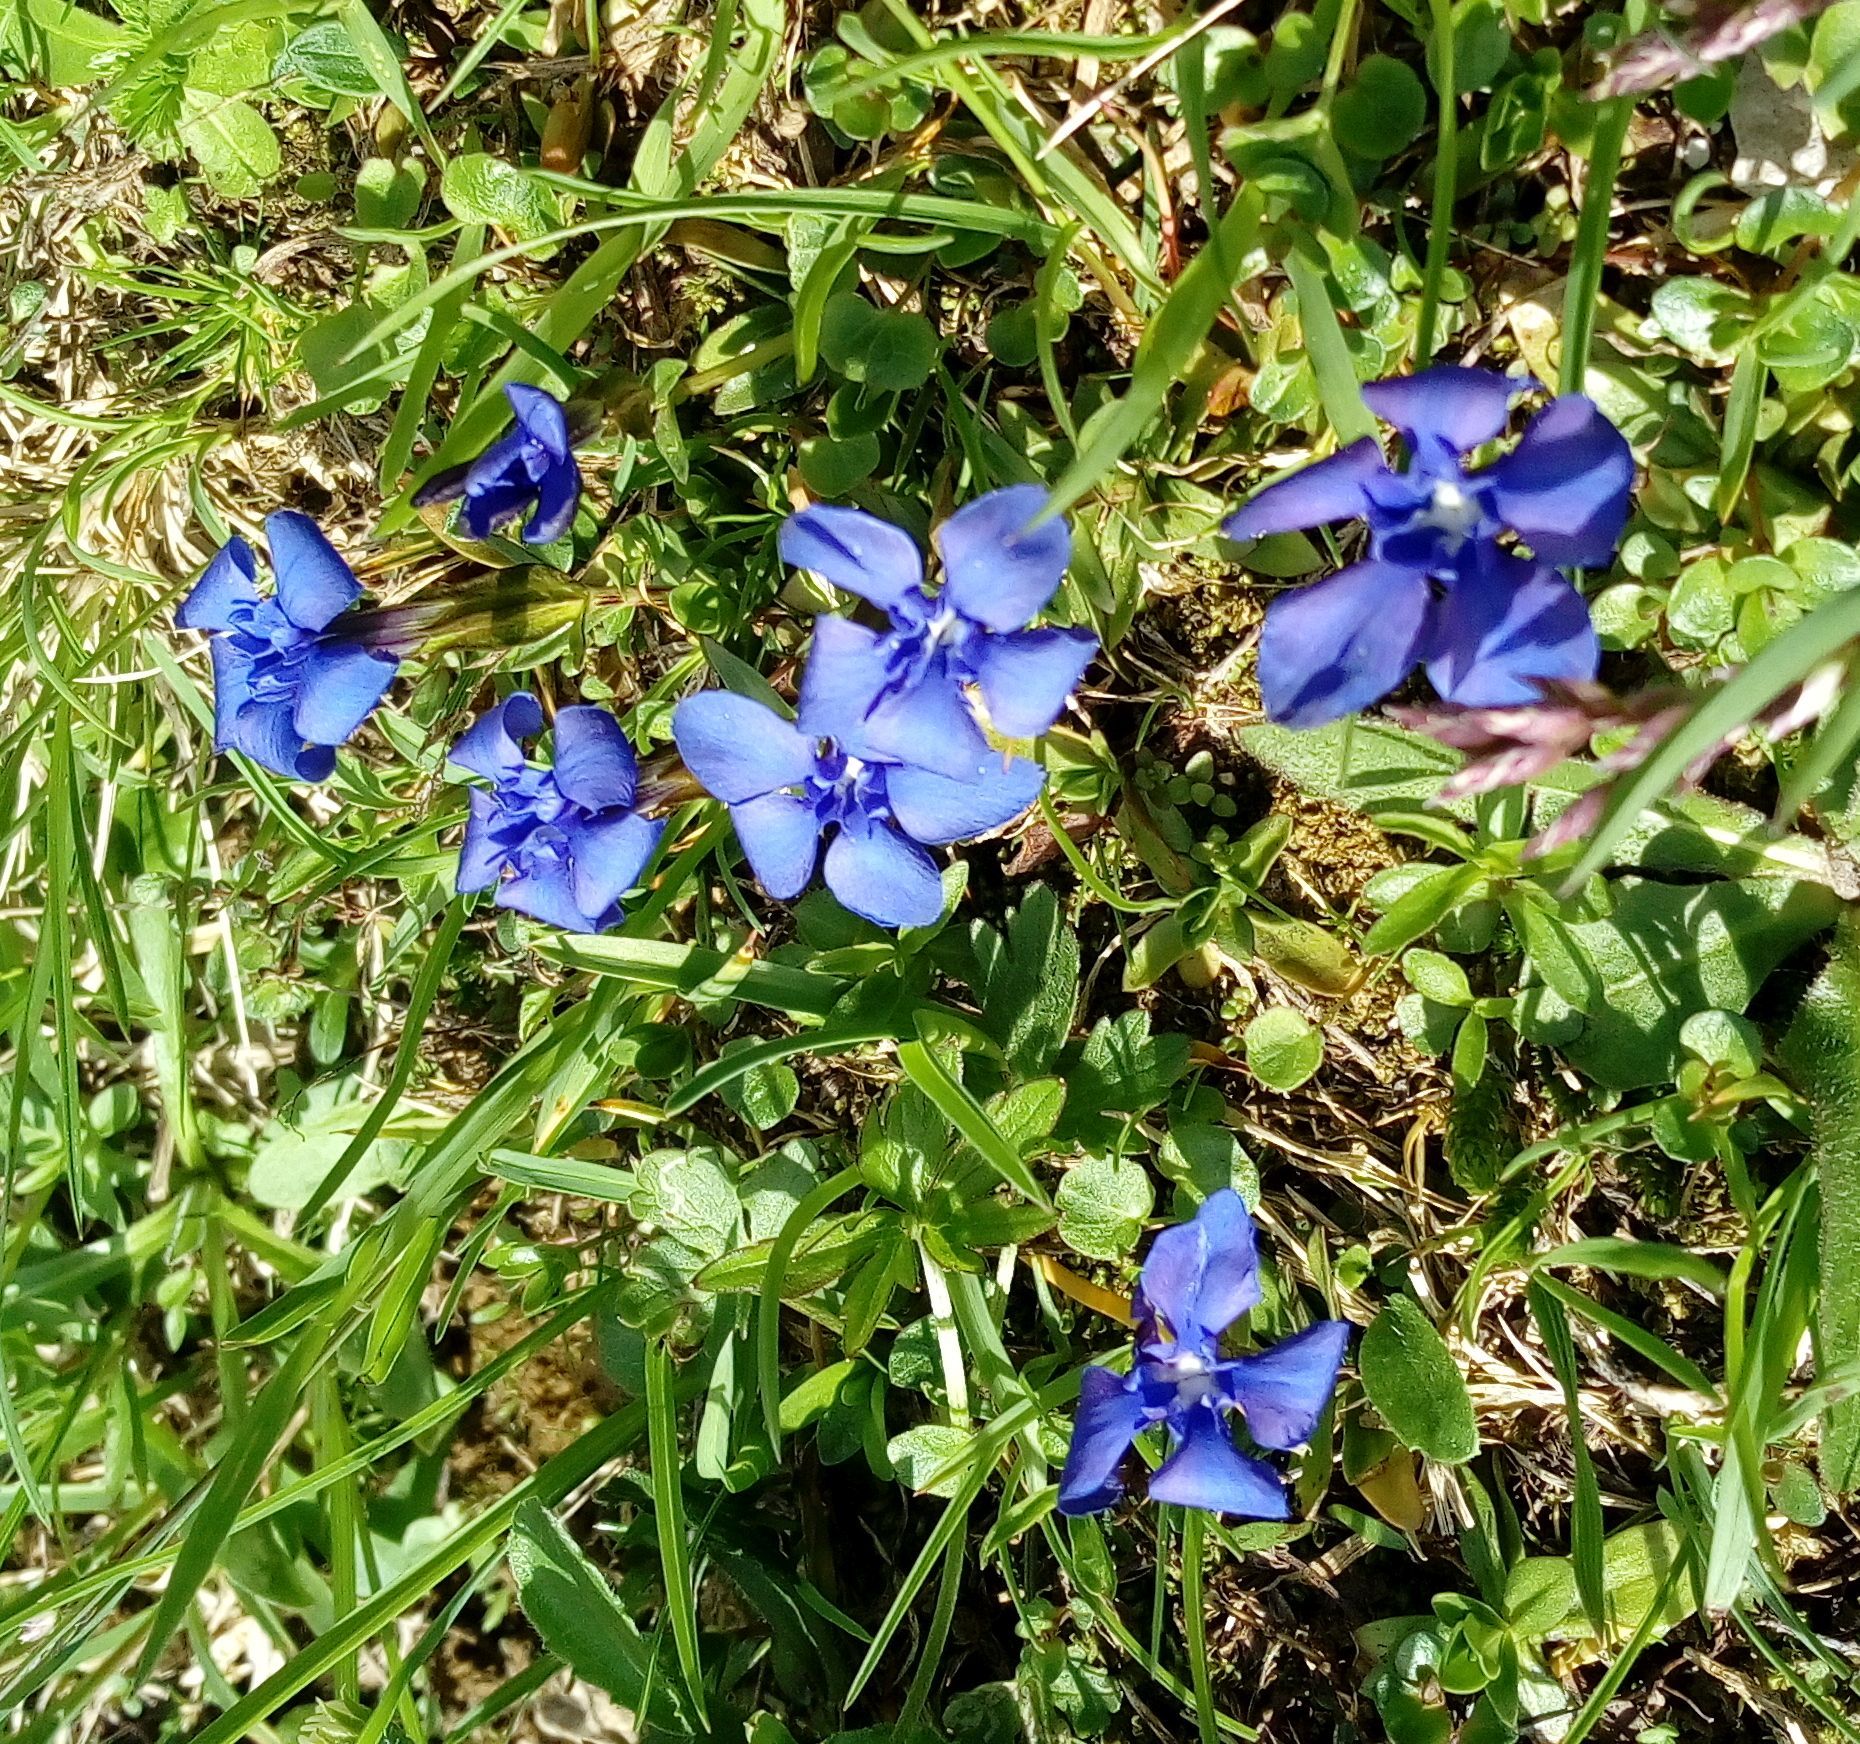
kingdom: Plantae
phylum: Tracheophyta
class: Magnoliopsida
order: Gentianales
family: Gentianaceae
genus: Gentiana
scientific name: Gentiana verna
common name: Spring gentian
